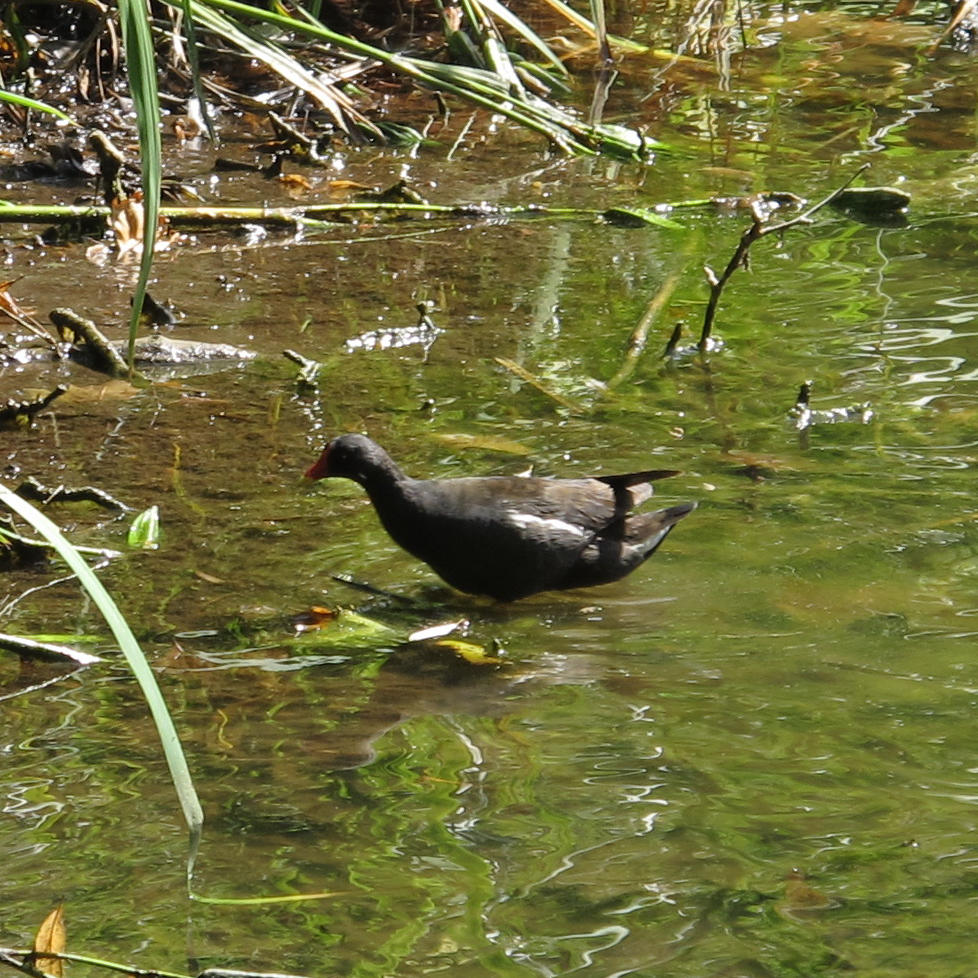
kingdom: Animalia
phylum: Chordata
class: Aves
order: Gruiformes
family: Rallidae
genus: Gallinula
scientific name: Gallinula chloropus
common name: Common moorhen
